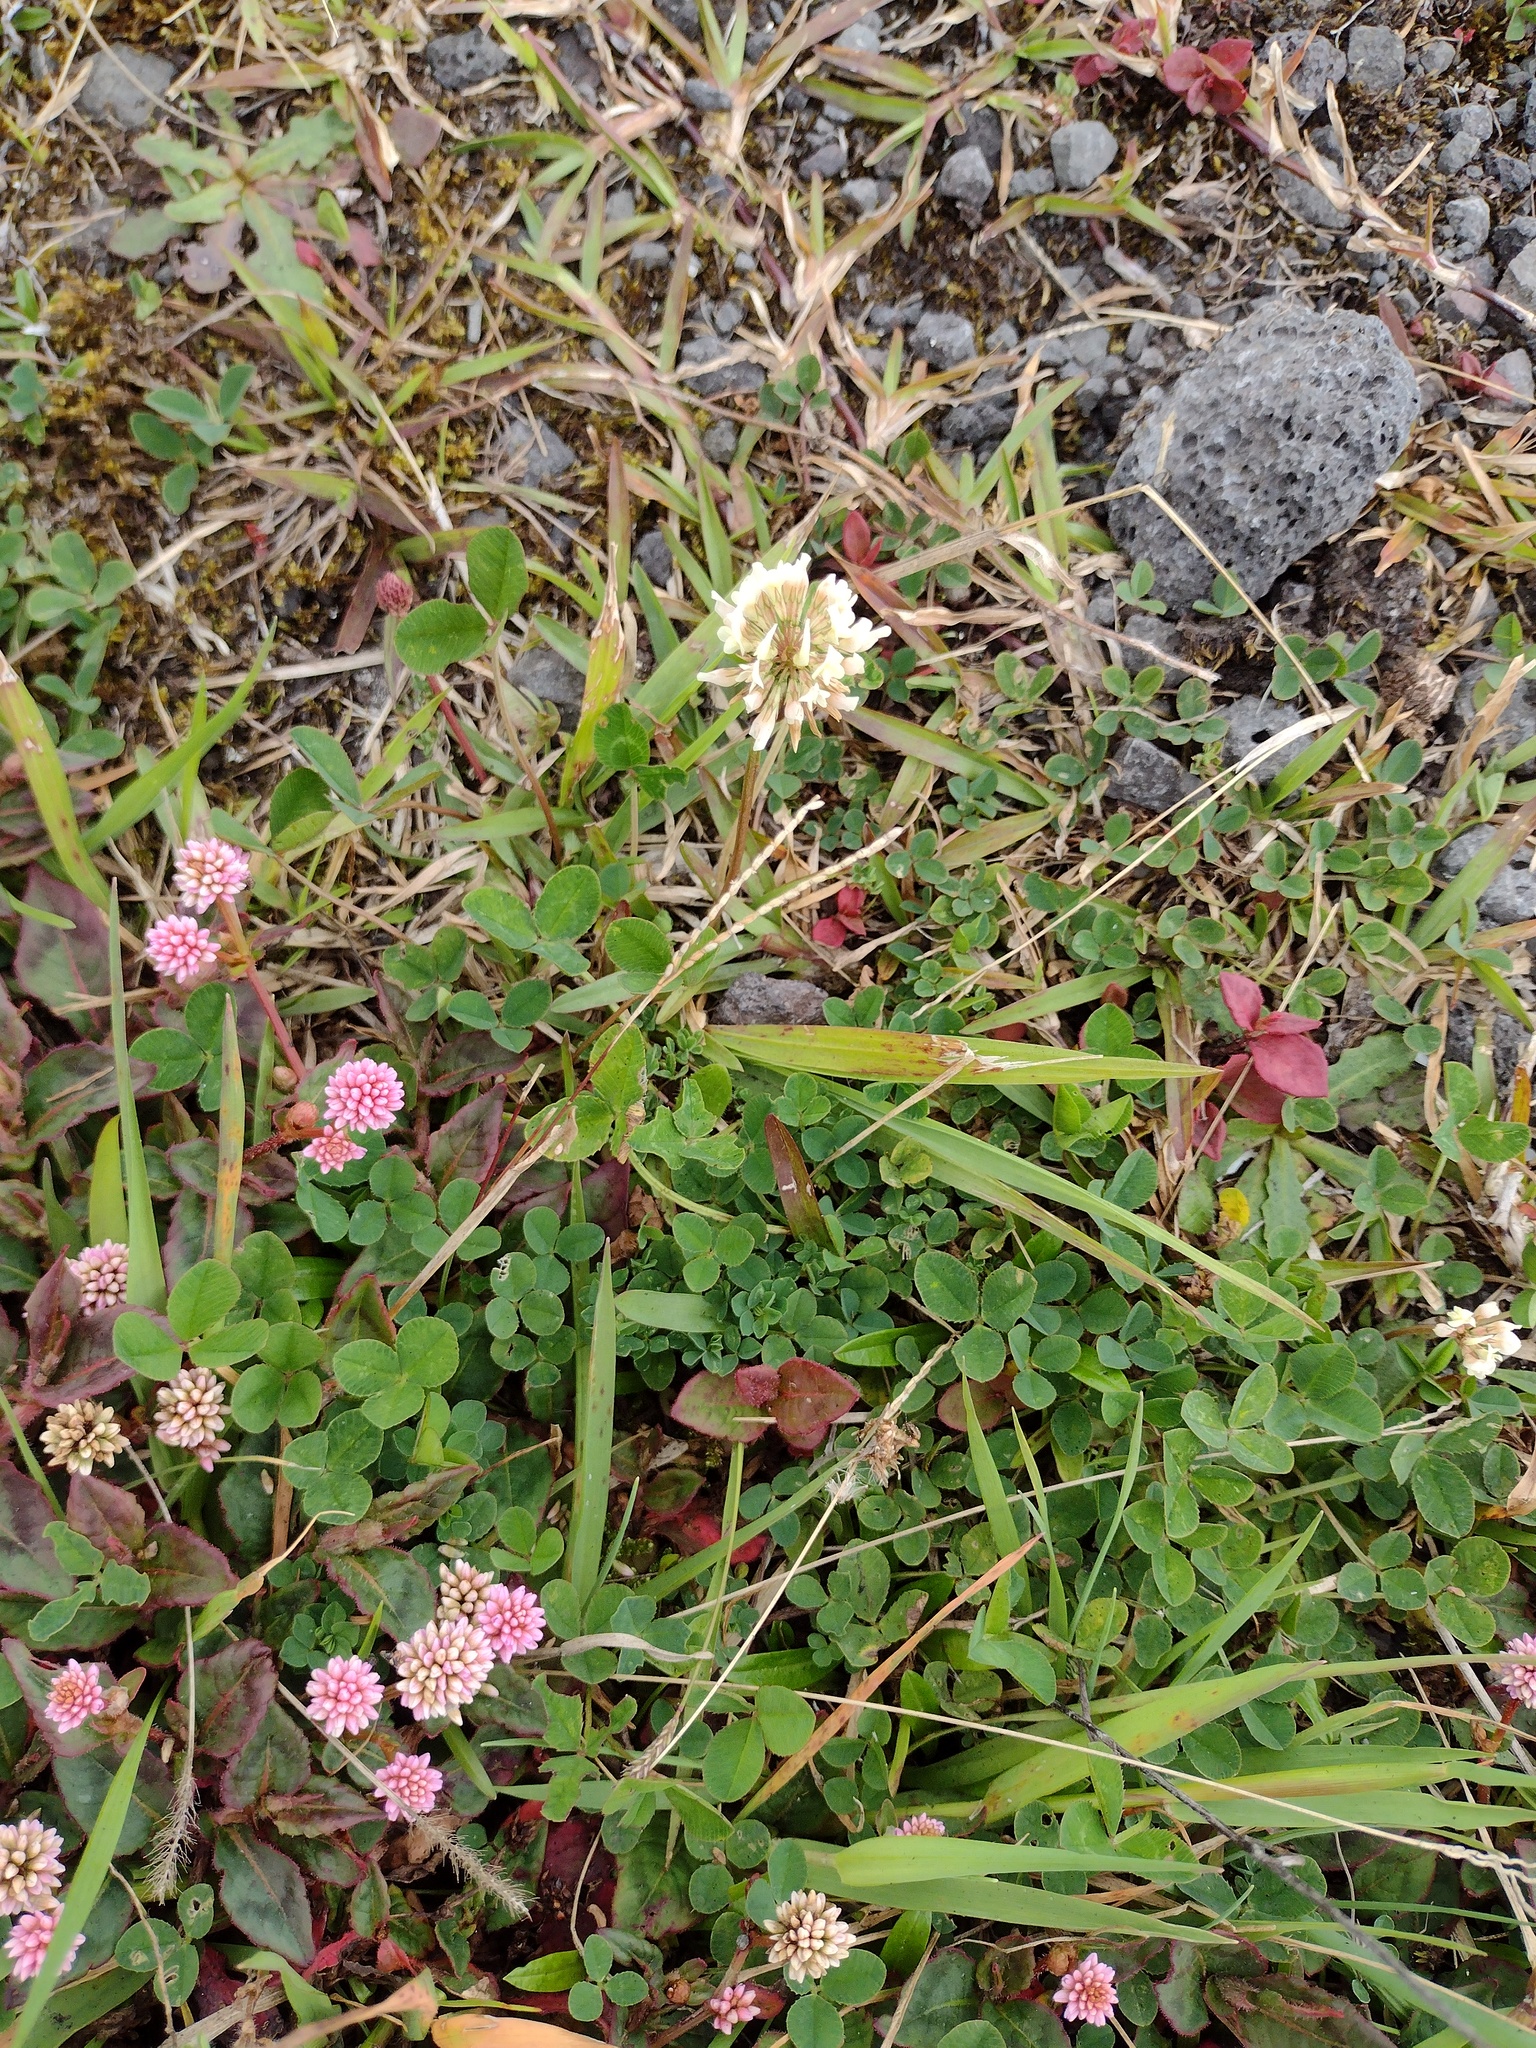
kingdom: Plantae
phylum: Tracheophyta
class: Magnoliopsida
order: Fabales
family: Fabaceae
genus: Trifolium
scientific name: Trifolium repens
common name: White clover
